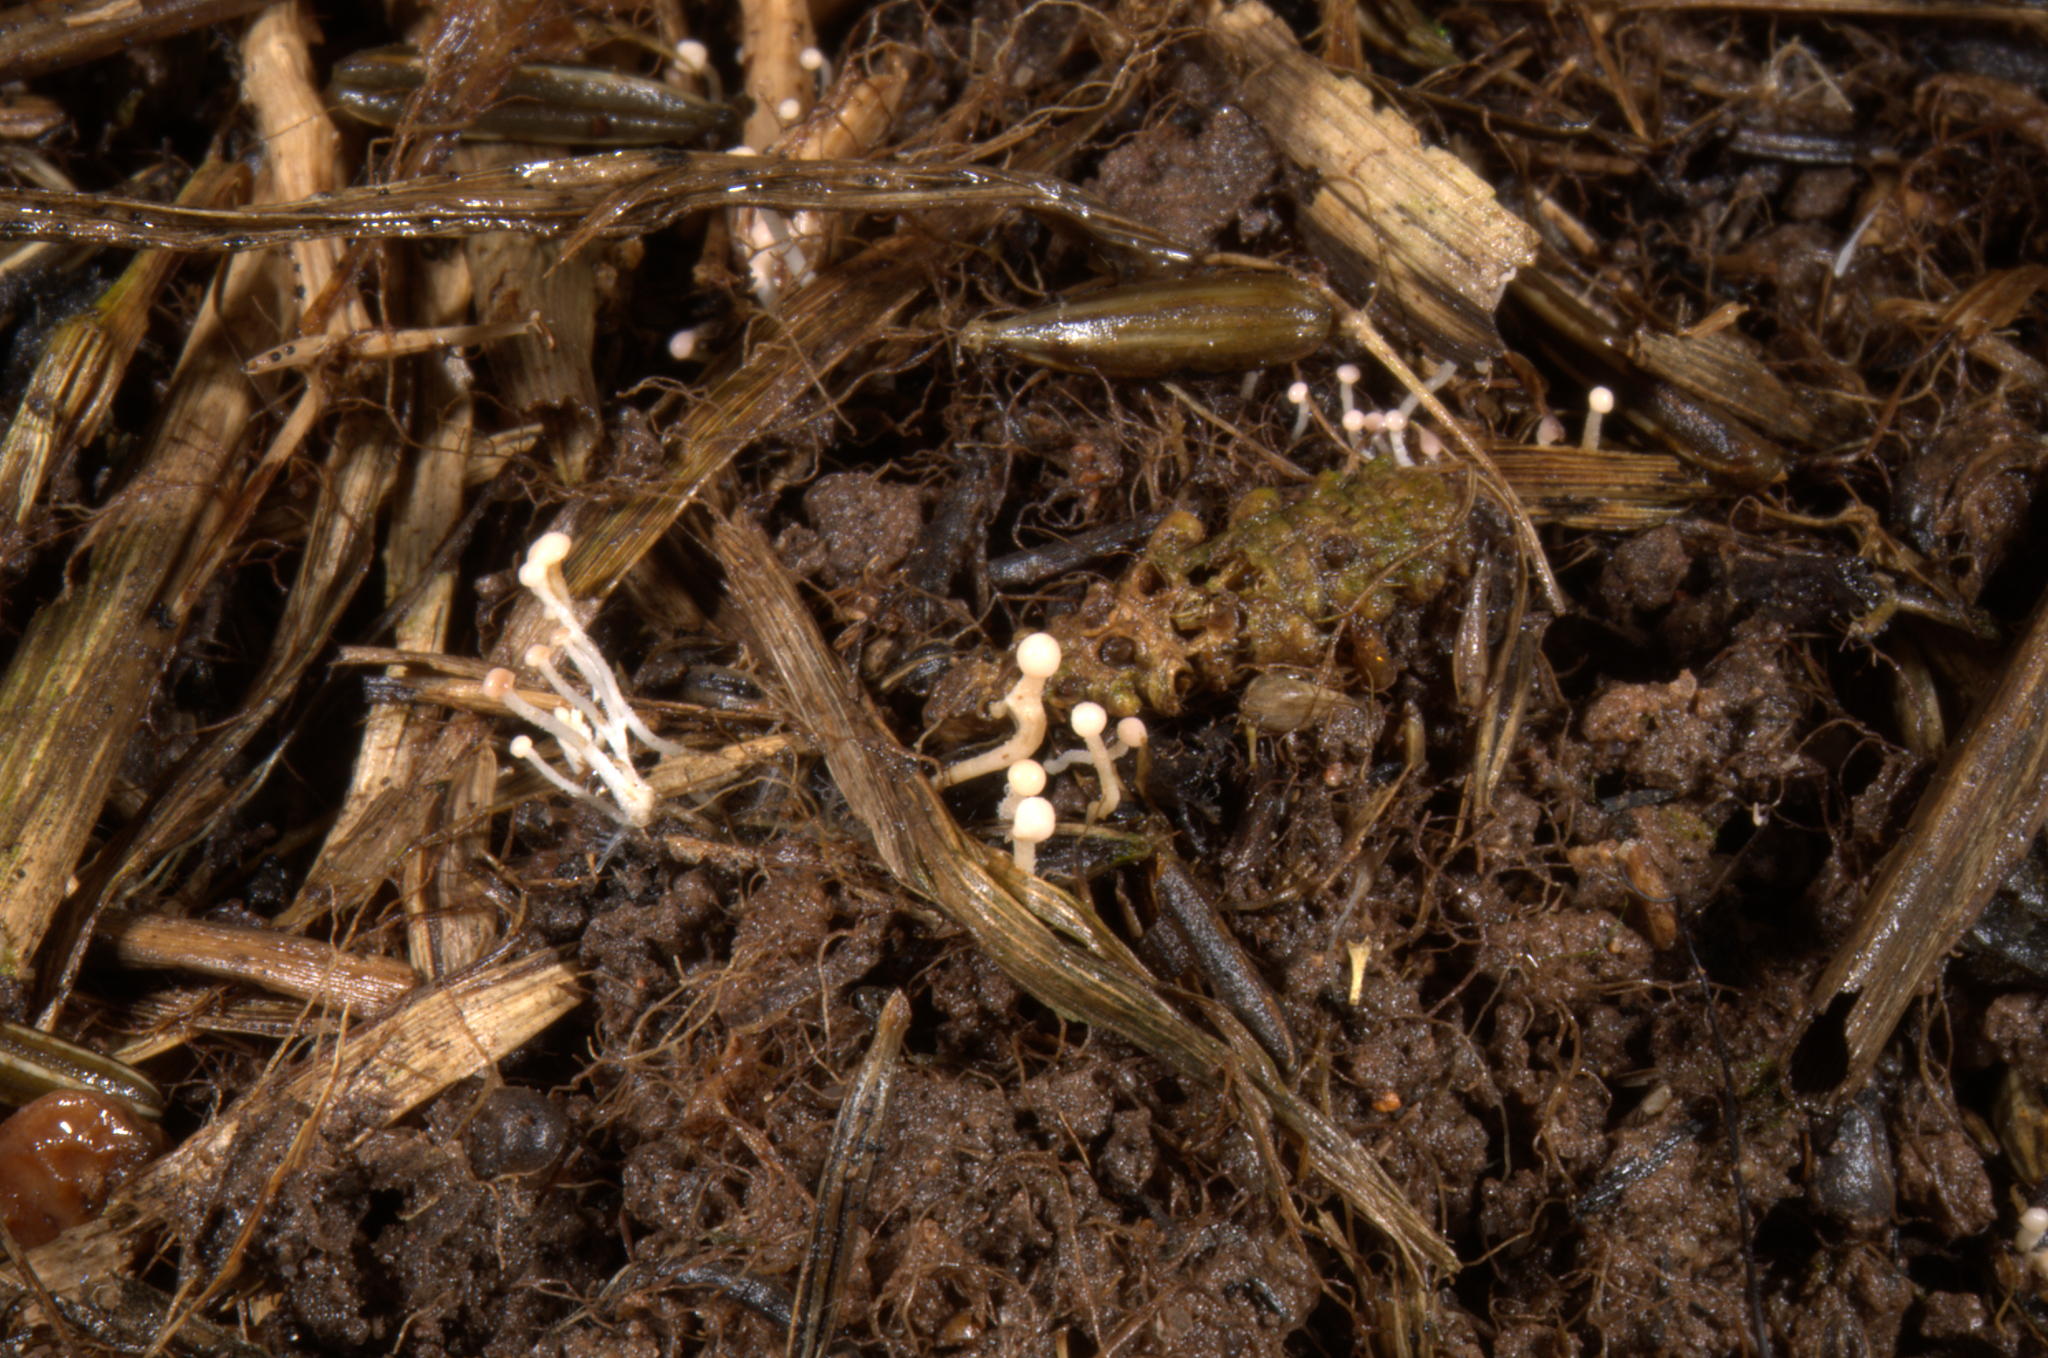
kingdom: Fungi
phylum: Ascomycota
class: Leotiomycetes
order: Helotiales
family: Helotiaceae
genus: Symphyosirinia
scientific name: Symphyosirinia chaerophylli
